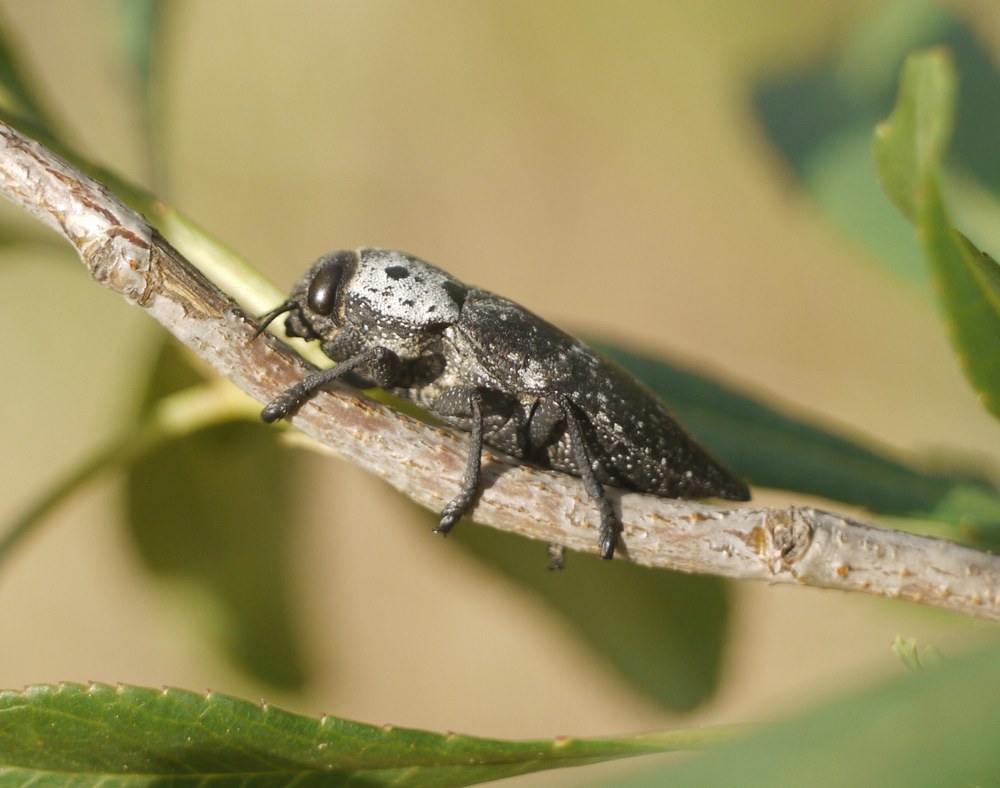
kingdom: Animalia
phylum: Arthropoda
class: Insecta
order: Coleoptera
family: Buprestidae
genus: Capnodis
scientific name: Capnodis tenebrionis
